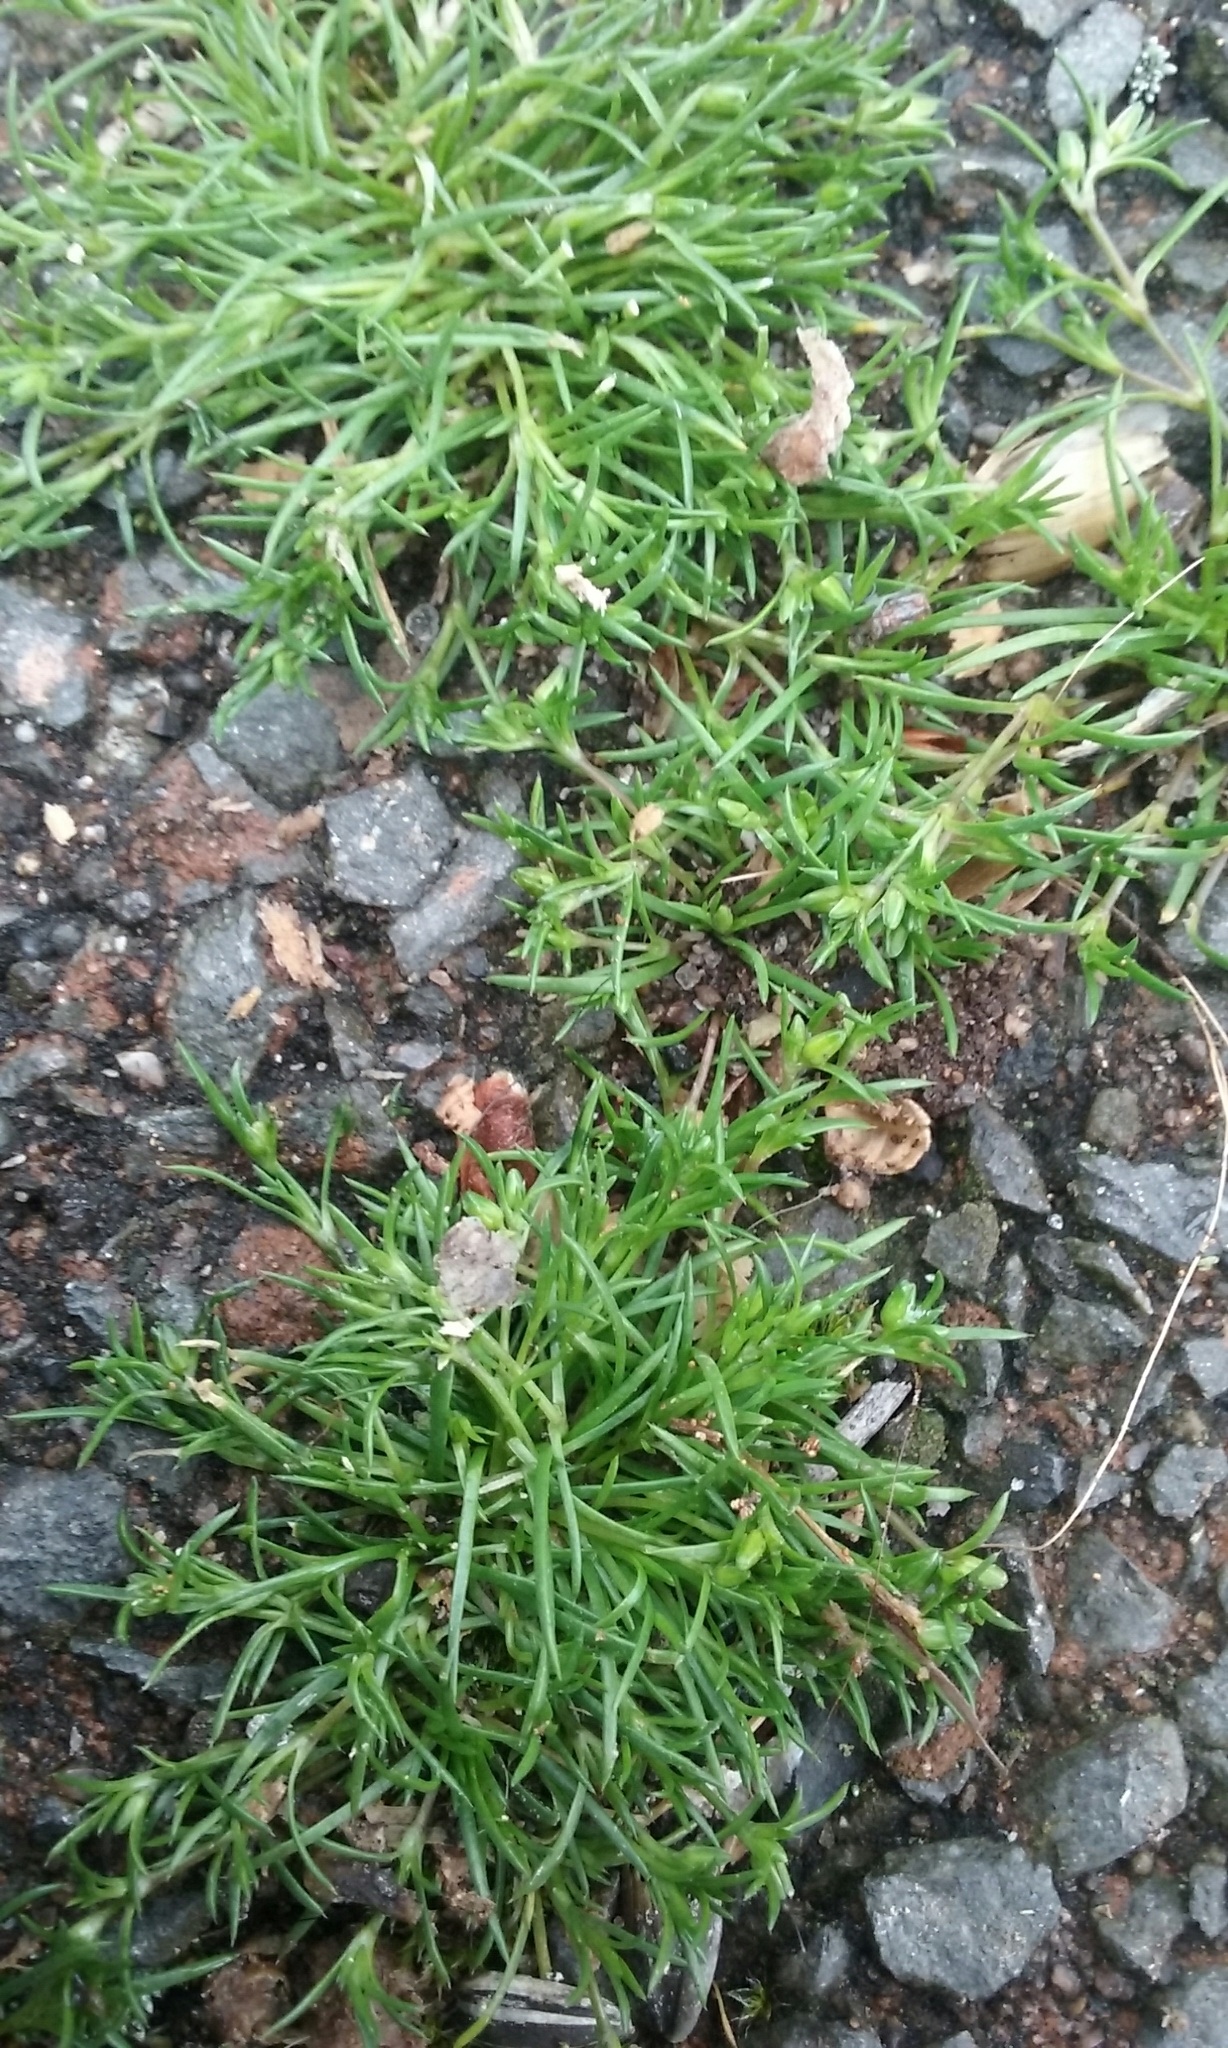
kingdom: Plantae
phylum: Tracheophyta
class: Magnoliopsida
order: Caryophyllales
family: Caryophyllaceae
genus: Sagina
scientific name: Sagina procumbens
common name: Procumbent pearlwort
